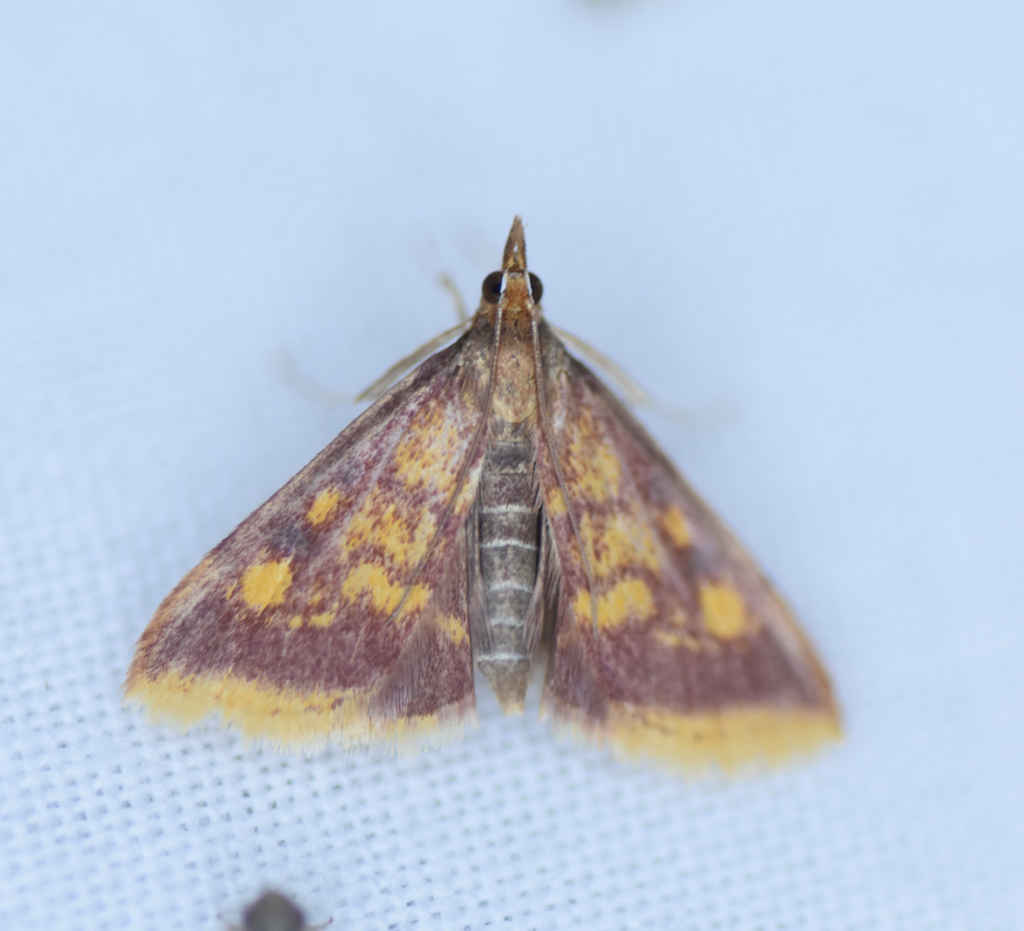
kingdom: Animalia
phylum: Arthropoda
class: Insecta
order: Lepidoptera
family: Crambidae
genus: Pyrausta
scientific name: Pyrausta acrionalis
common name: Mint-loving pyrausta moth
